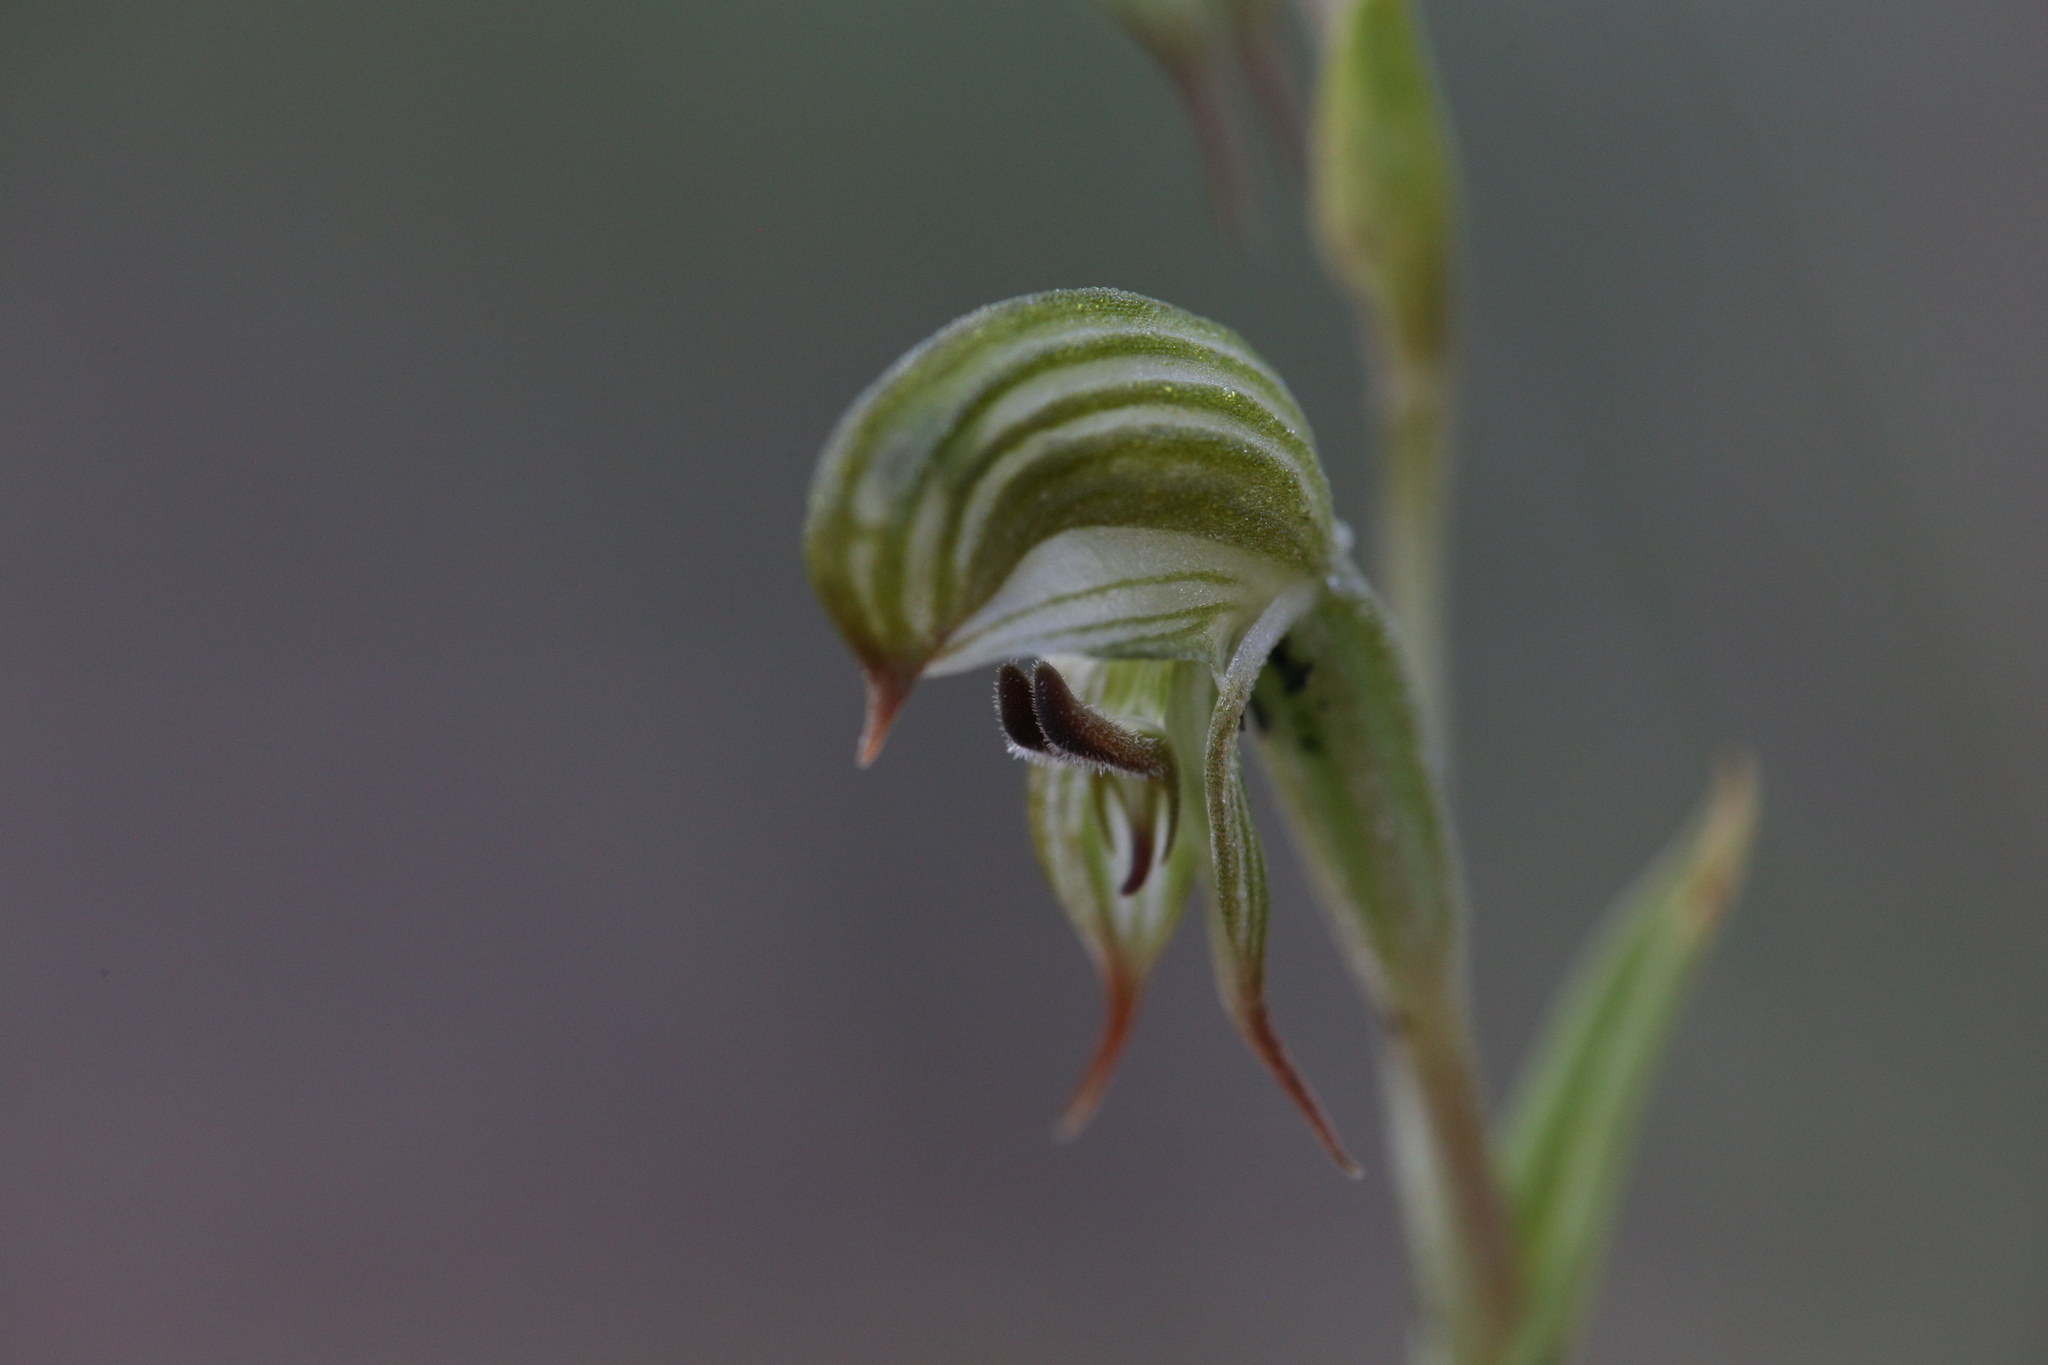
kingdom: Plantae
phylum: Tracheophyta
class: Liliopsida
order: Asparagales
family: Orchidaceae
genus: Pterostylis
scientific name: Pterostylis
